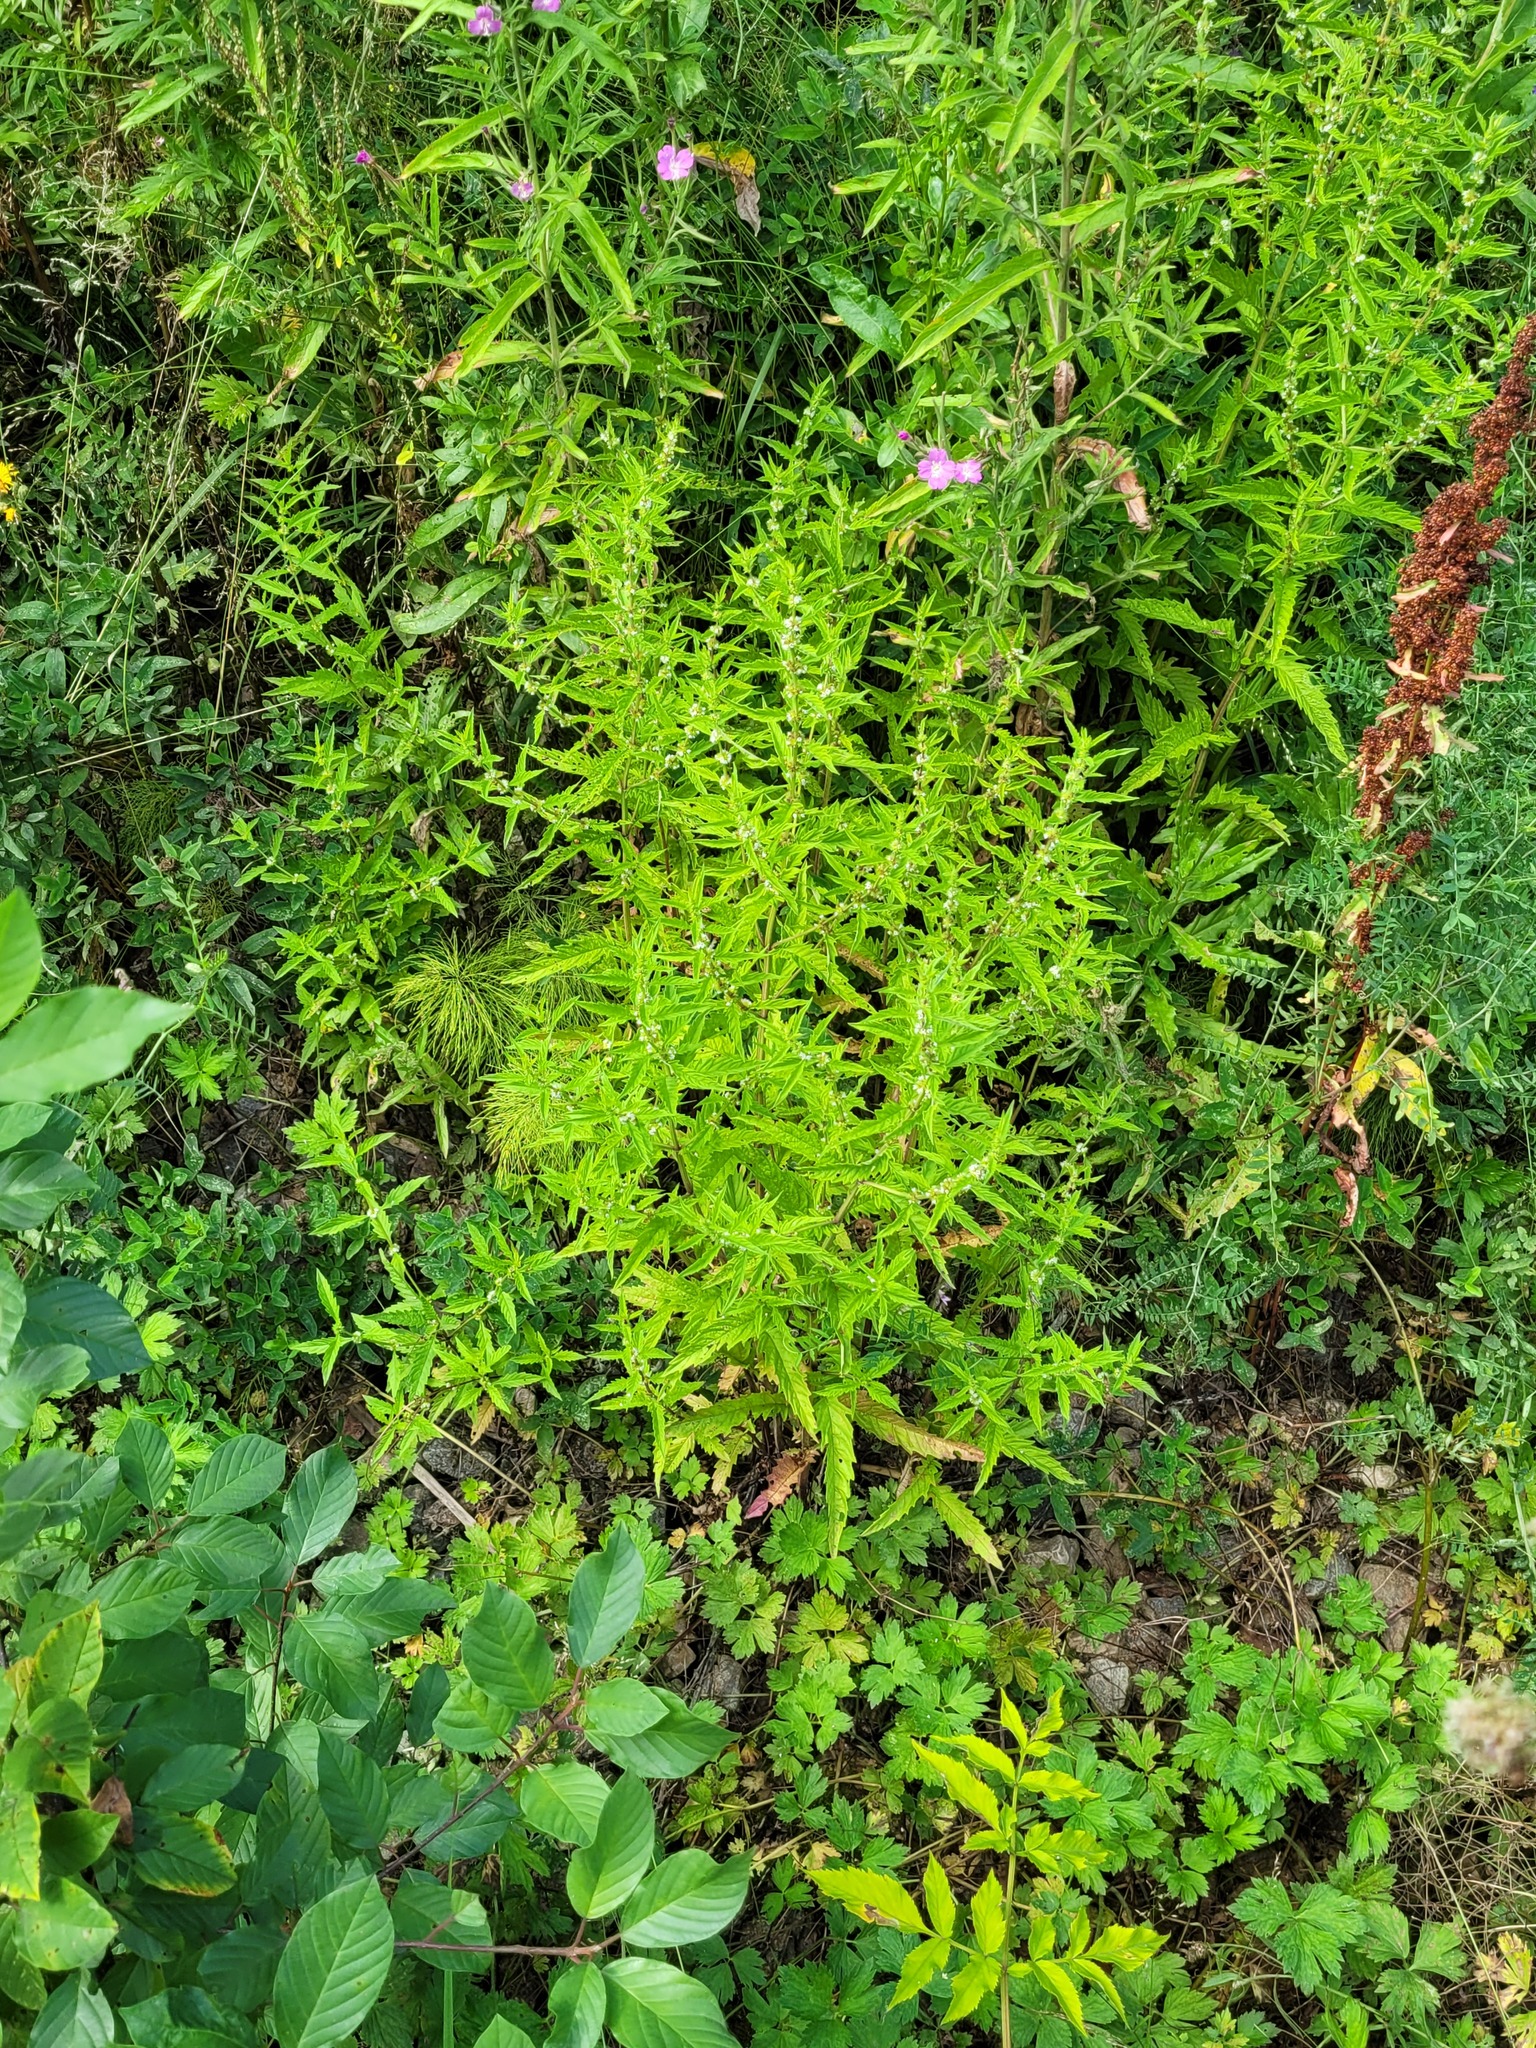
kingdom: Plantae
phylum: Tracheophyta
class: Magnoliopsida
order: Lamiales
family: Lamiaceae
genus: Lycopus
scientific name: Lycopus europaeus
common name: European bugleweed
